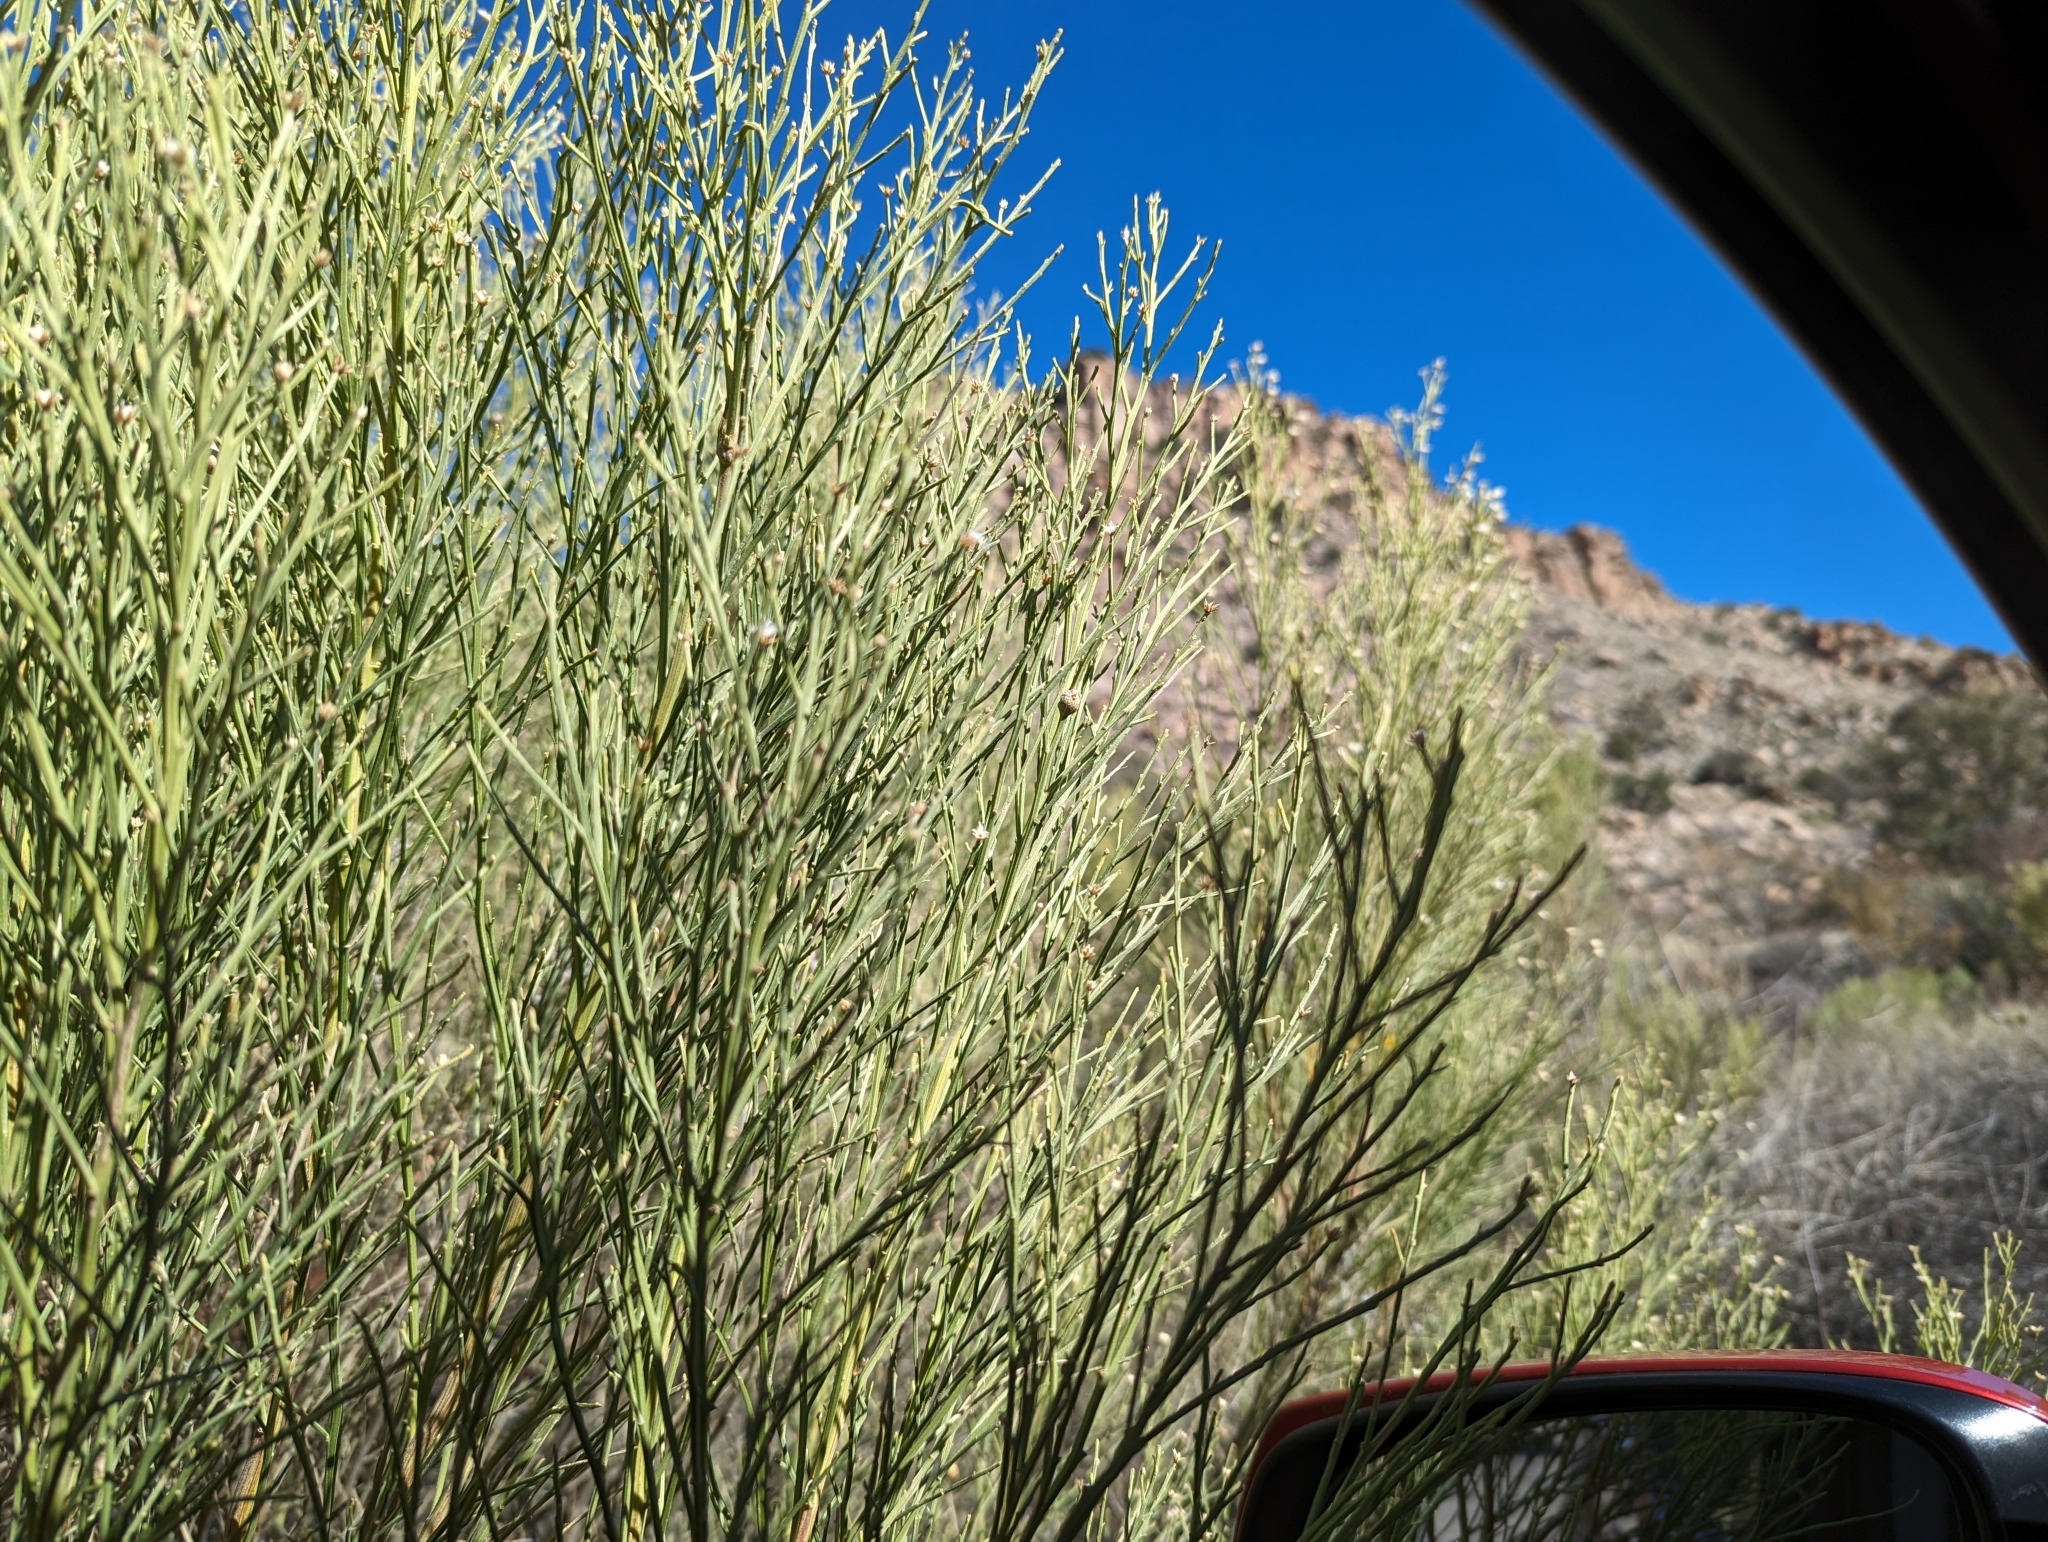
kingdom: Plantae
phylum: Tracheophyta
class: Magnoliopsida
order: Asterales
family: Asteraceae
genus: Baccharis
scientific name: Baccharis sarothroides
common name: Desert-broom
